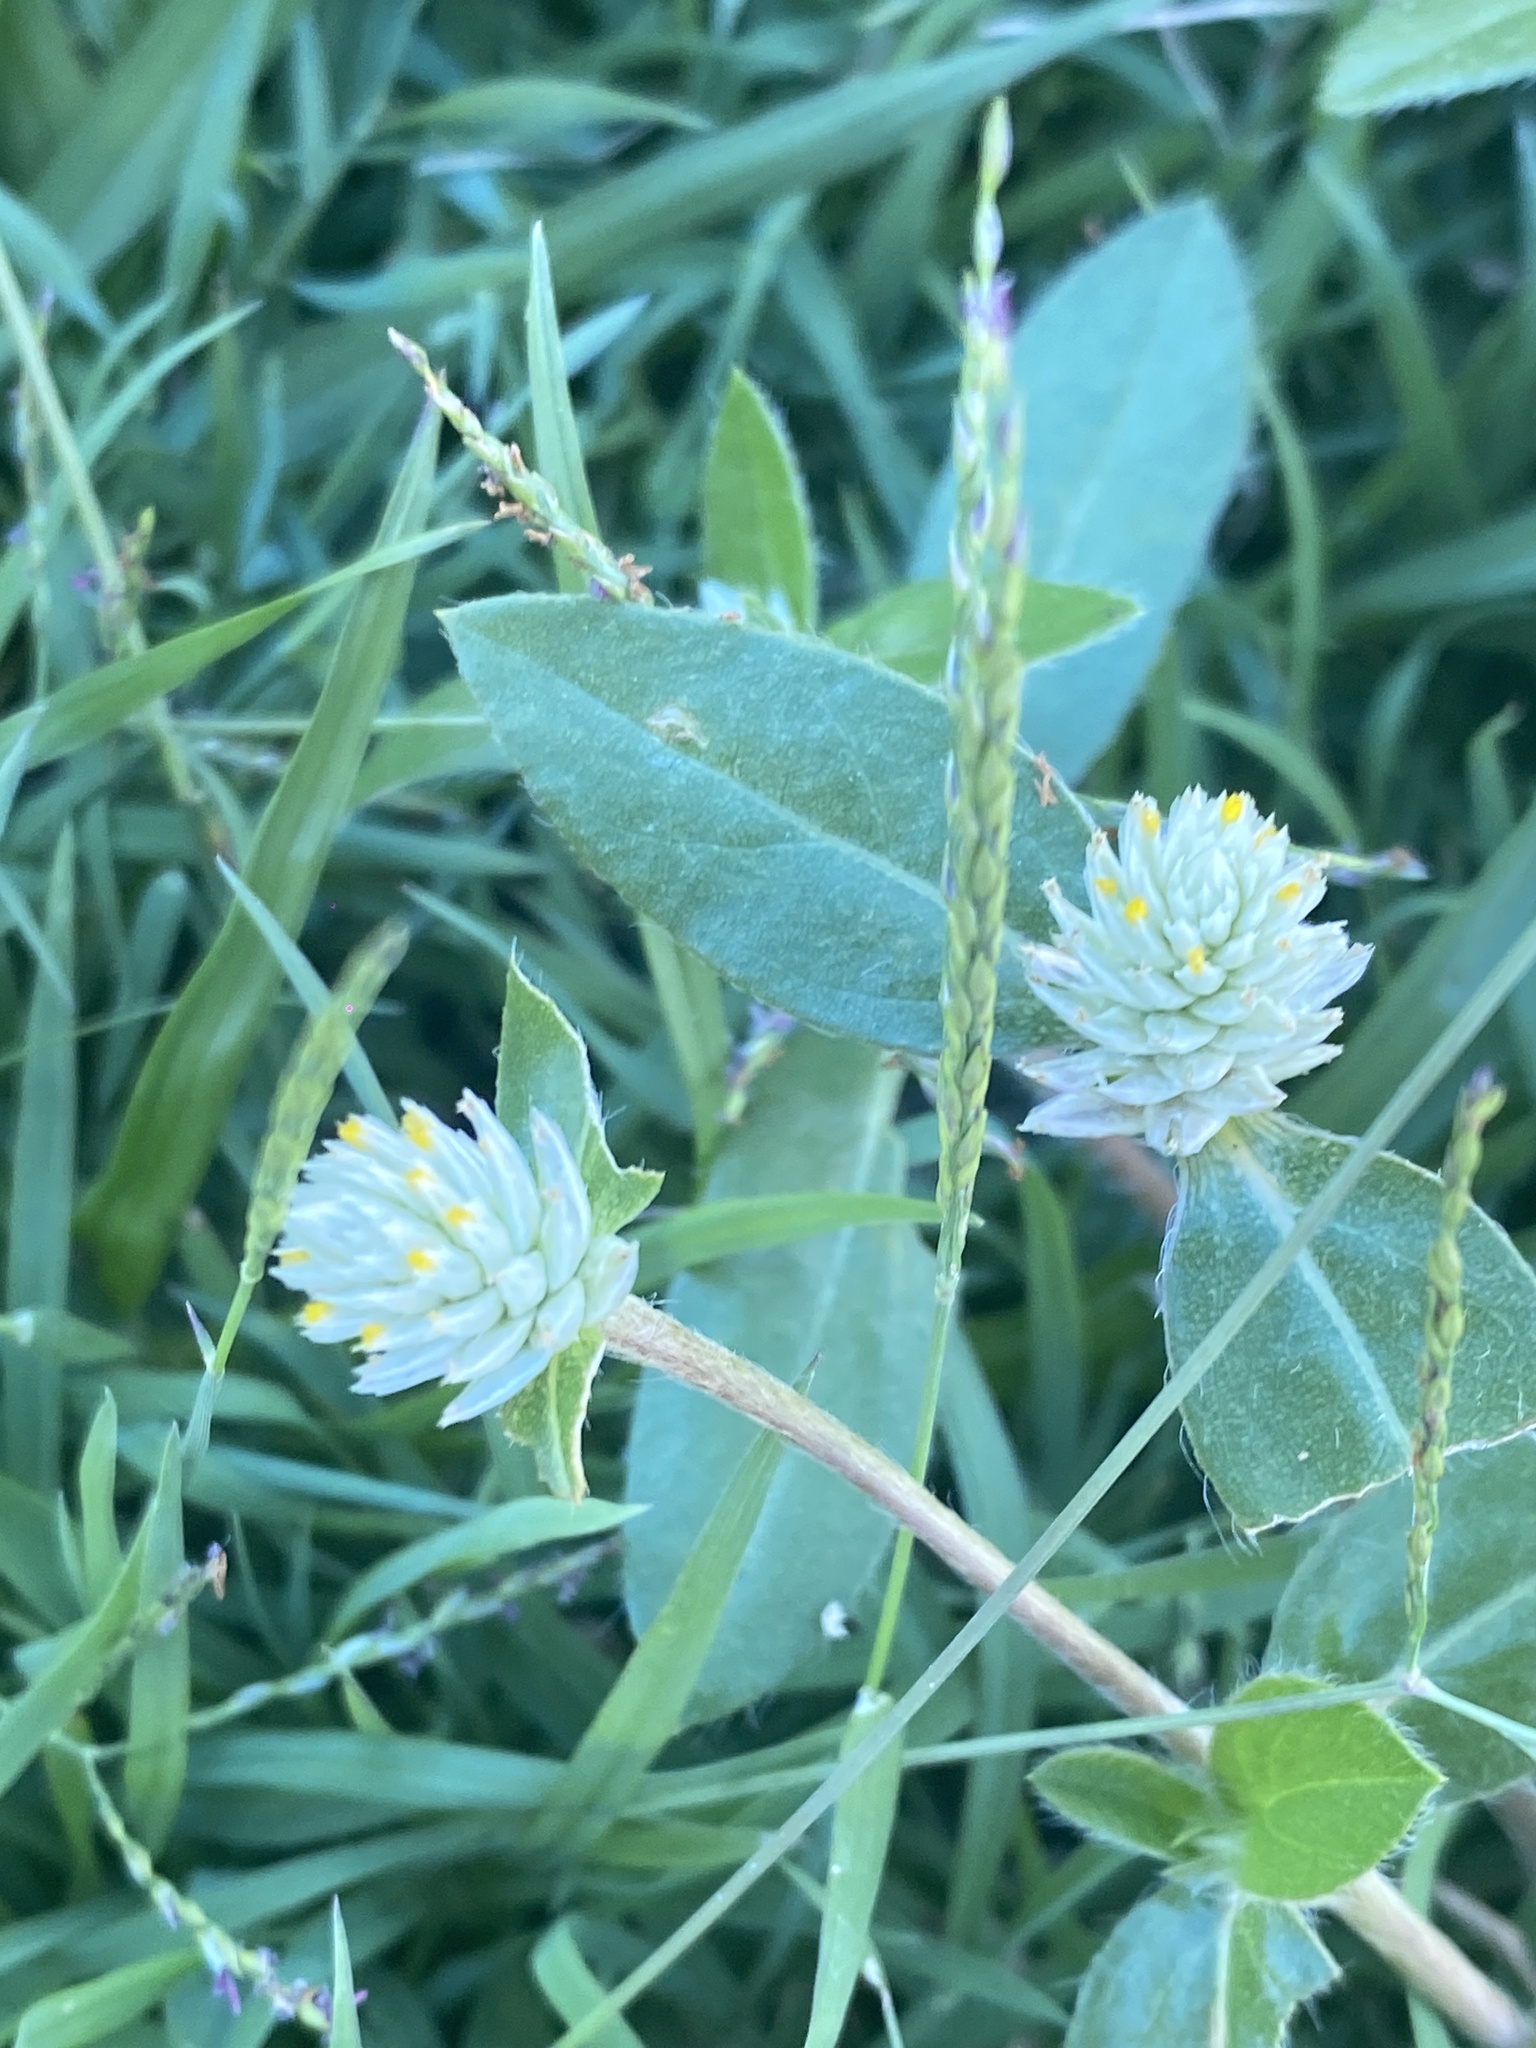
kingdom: Plantae
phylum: Tracheophyta
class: Magnoliopsida
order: Caryophyllales
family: Amaranthaceae
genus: Gomphrena
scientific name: Gomphrena celosioides
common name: Gomphrena-weed
